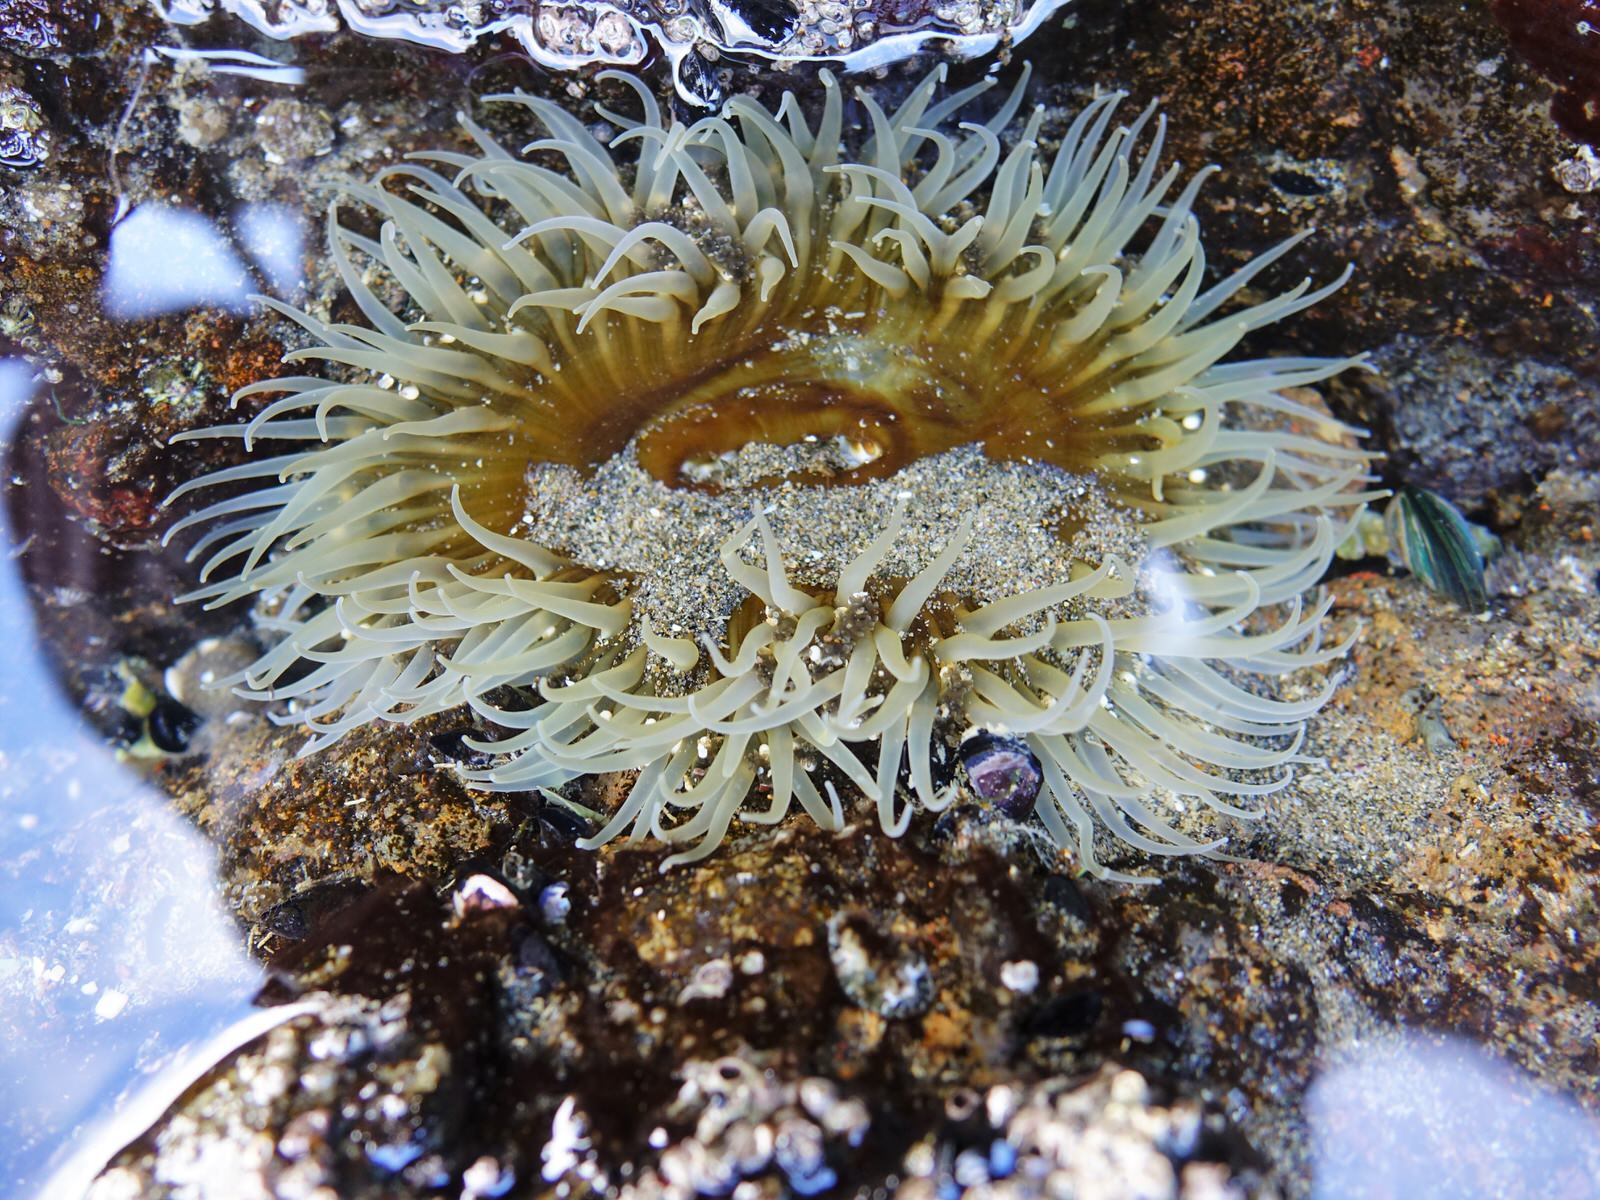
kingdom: Animalia
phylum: Cnidaria
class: Anthozoa
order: Actiniaria
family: Actiniidae
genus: Oulactis
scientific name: Oulactis magna
